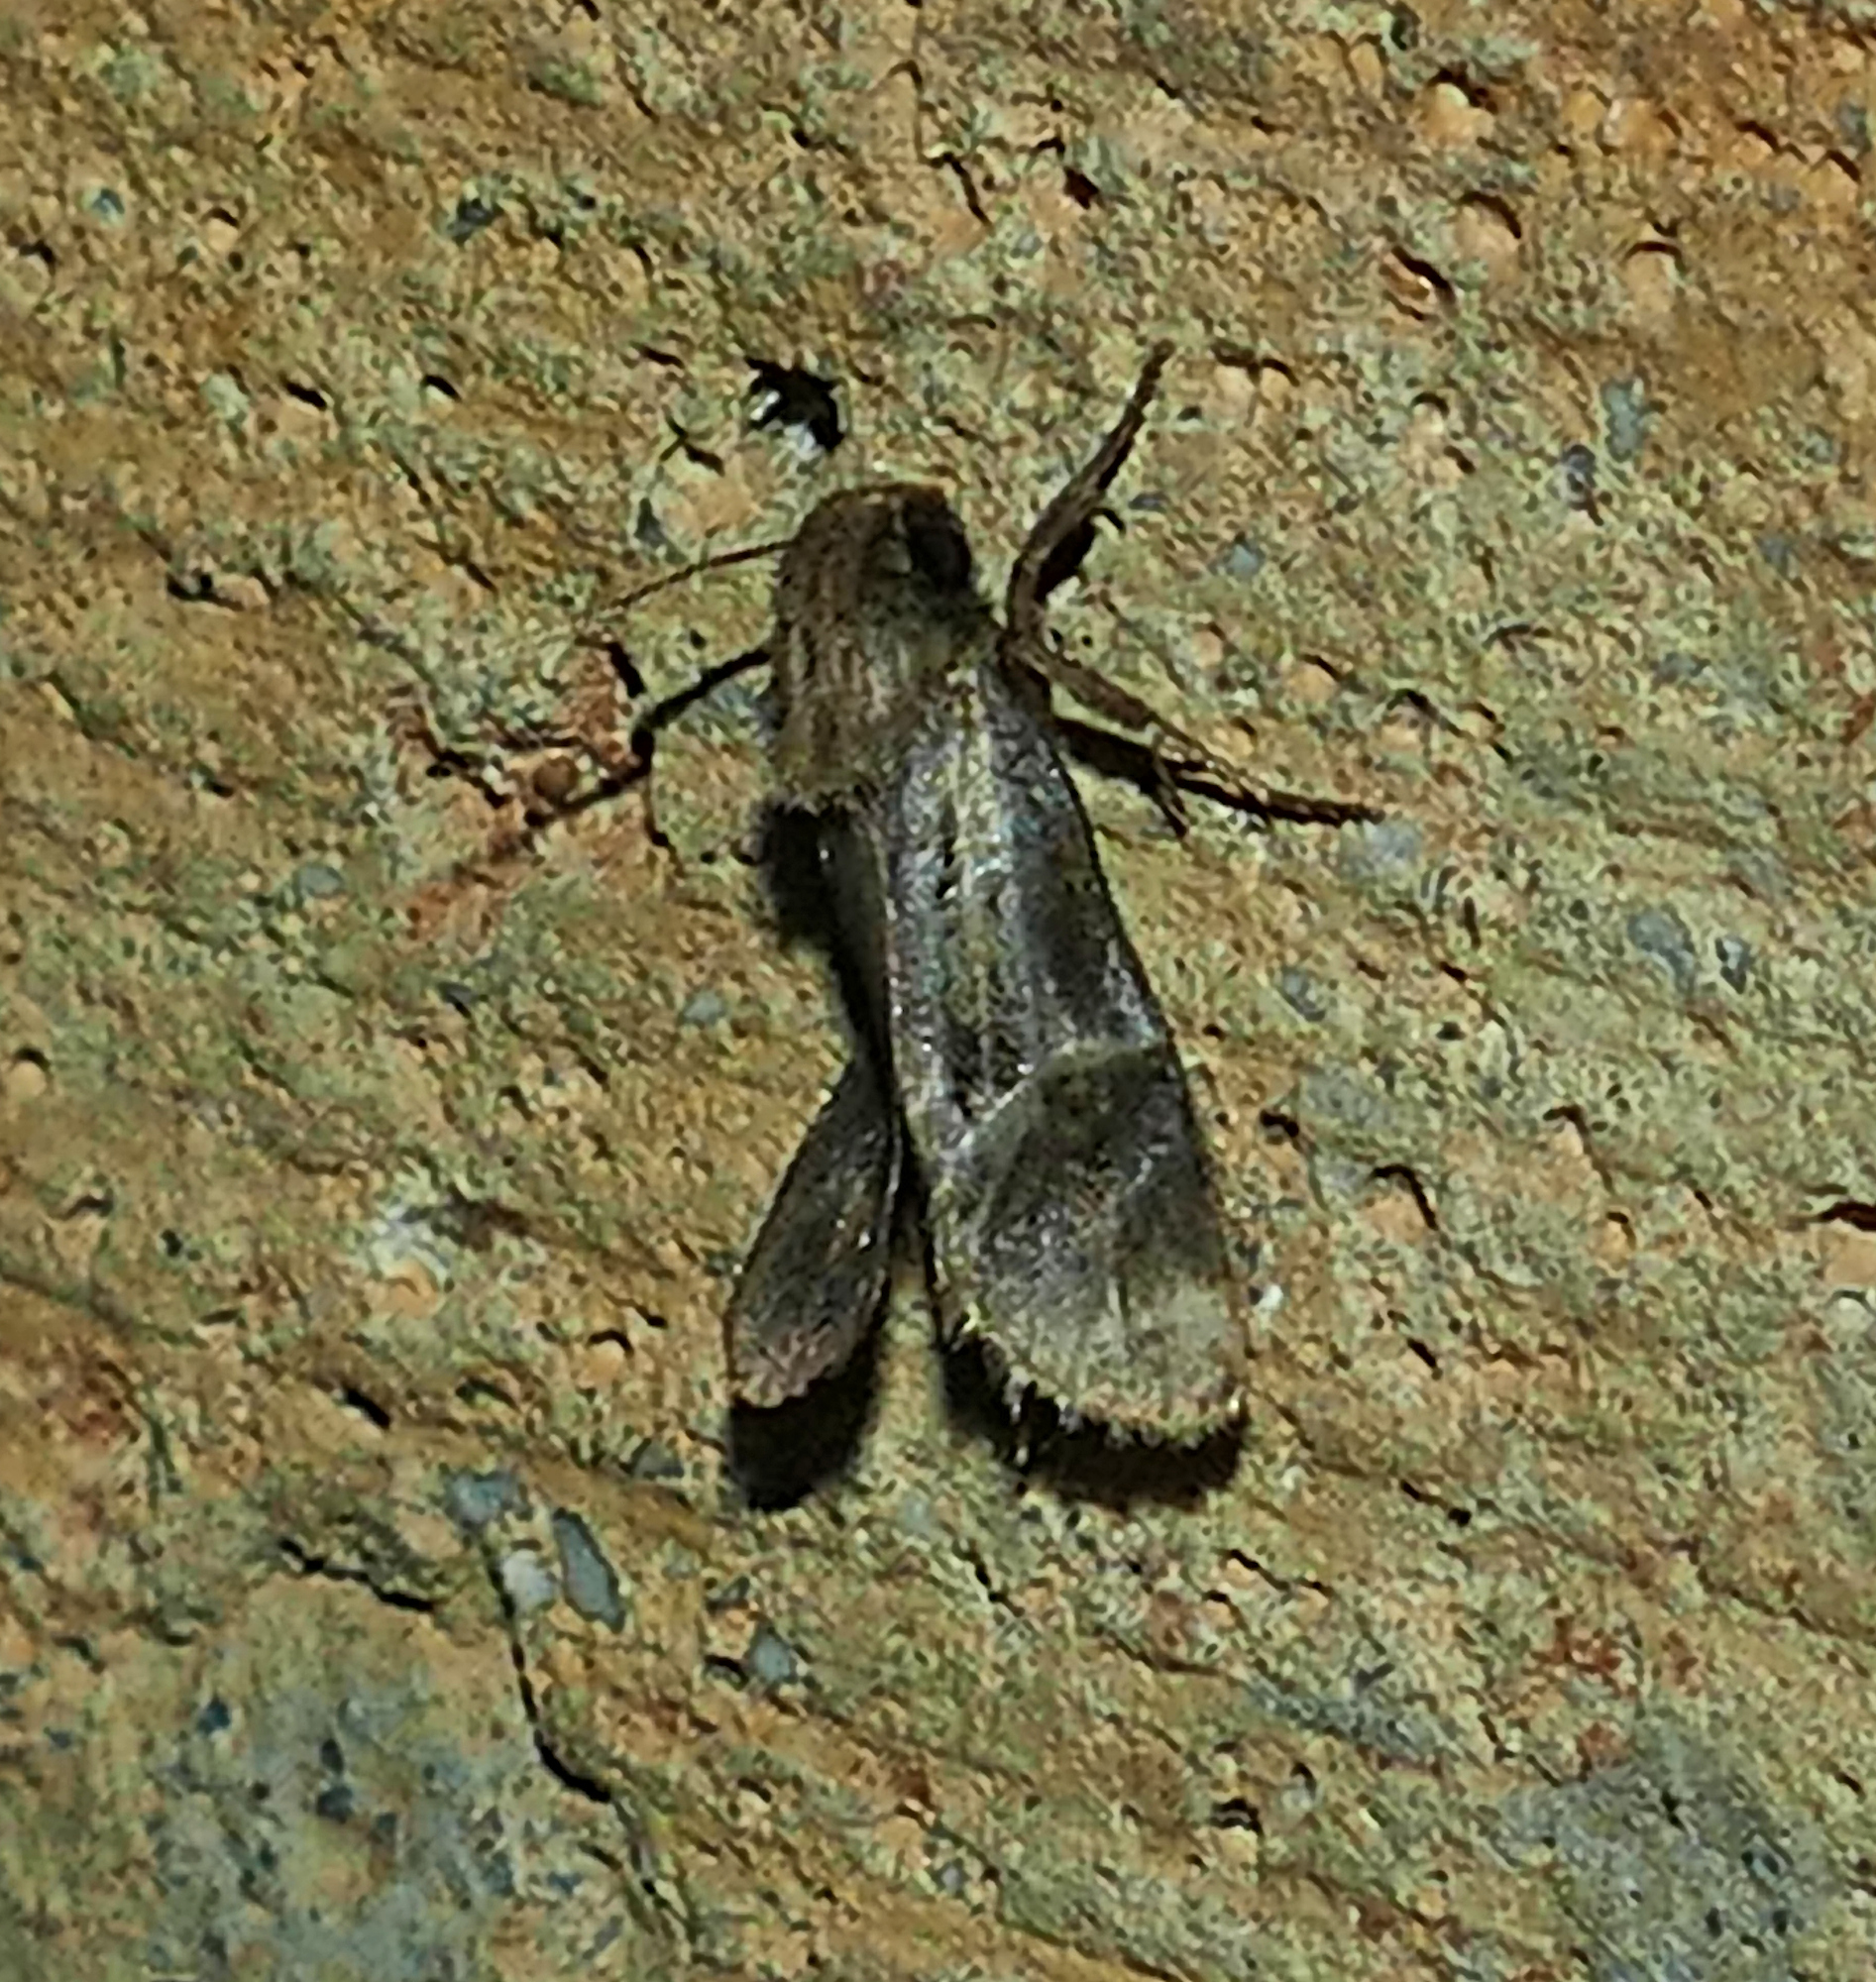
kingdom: Animalia
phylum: Arthropoda
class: Insecta
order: Lepidoptera
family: Tineidae
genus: Acrolophus
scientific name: Acrolophus popeanella
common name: Clemens' grass tubeworm moth
